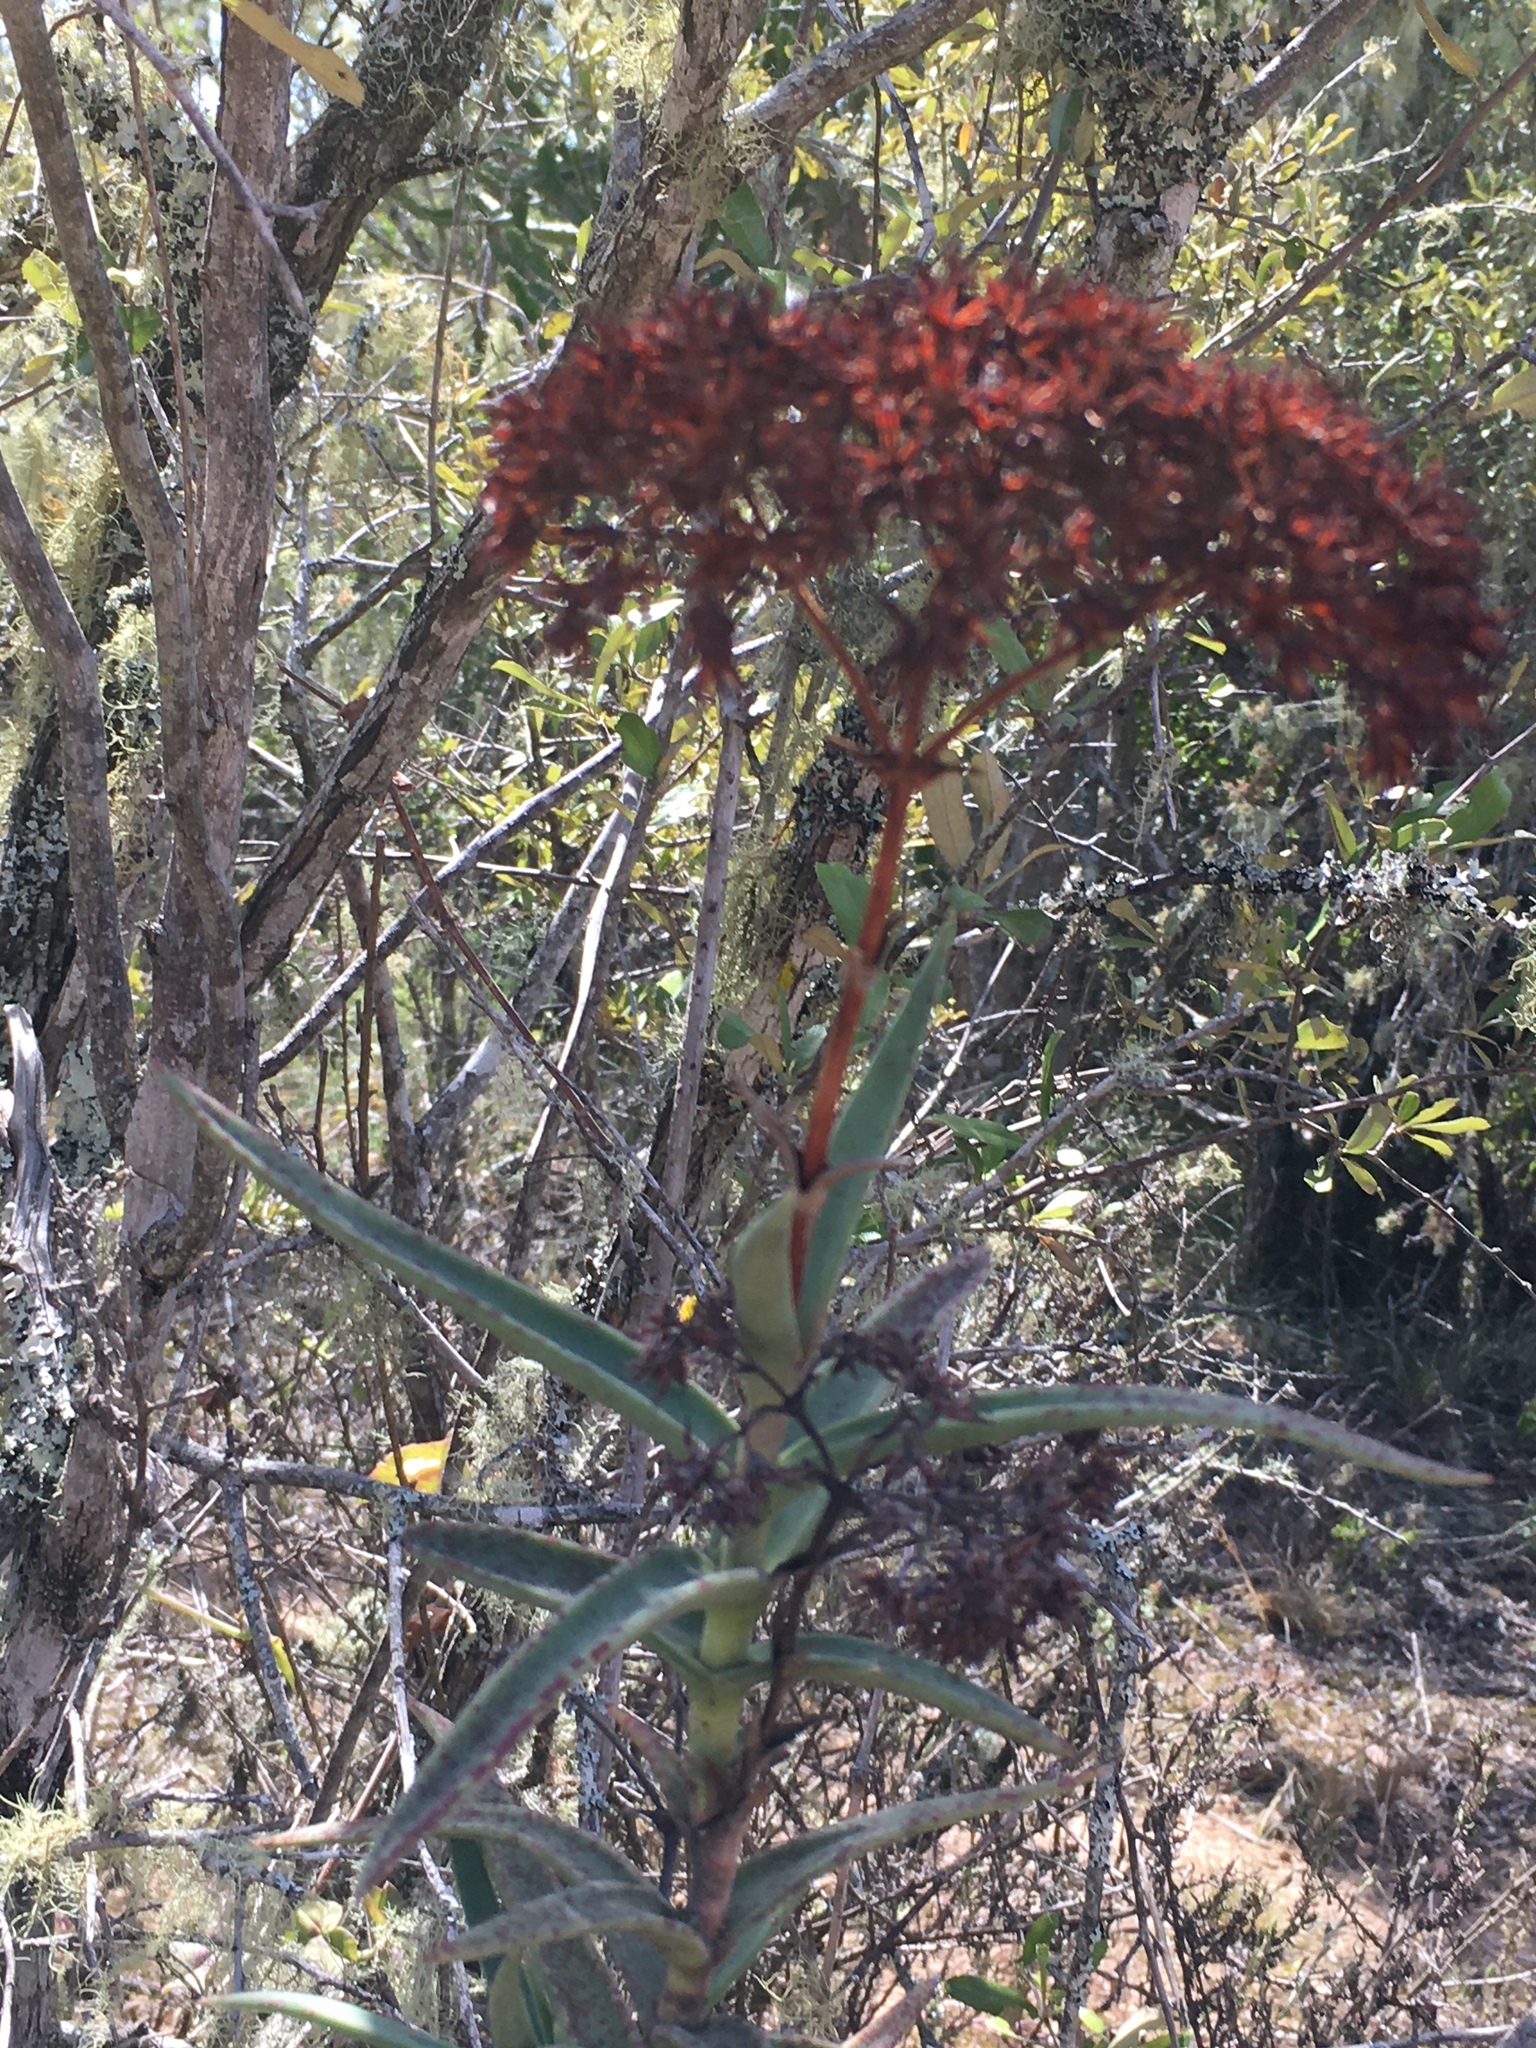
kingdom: Plantae
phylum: Tracheophyta
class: Magnoliopsida
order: Saxifragales
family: Crassulaceae
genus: Crassula
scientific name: Crassula perfoliata
